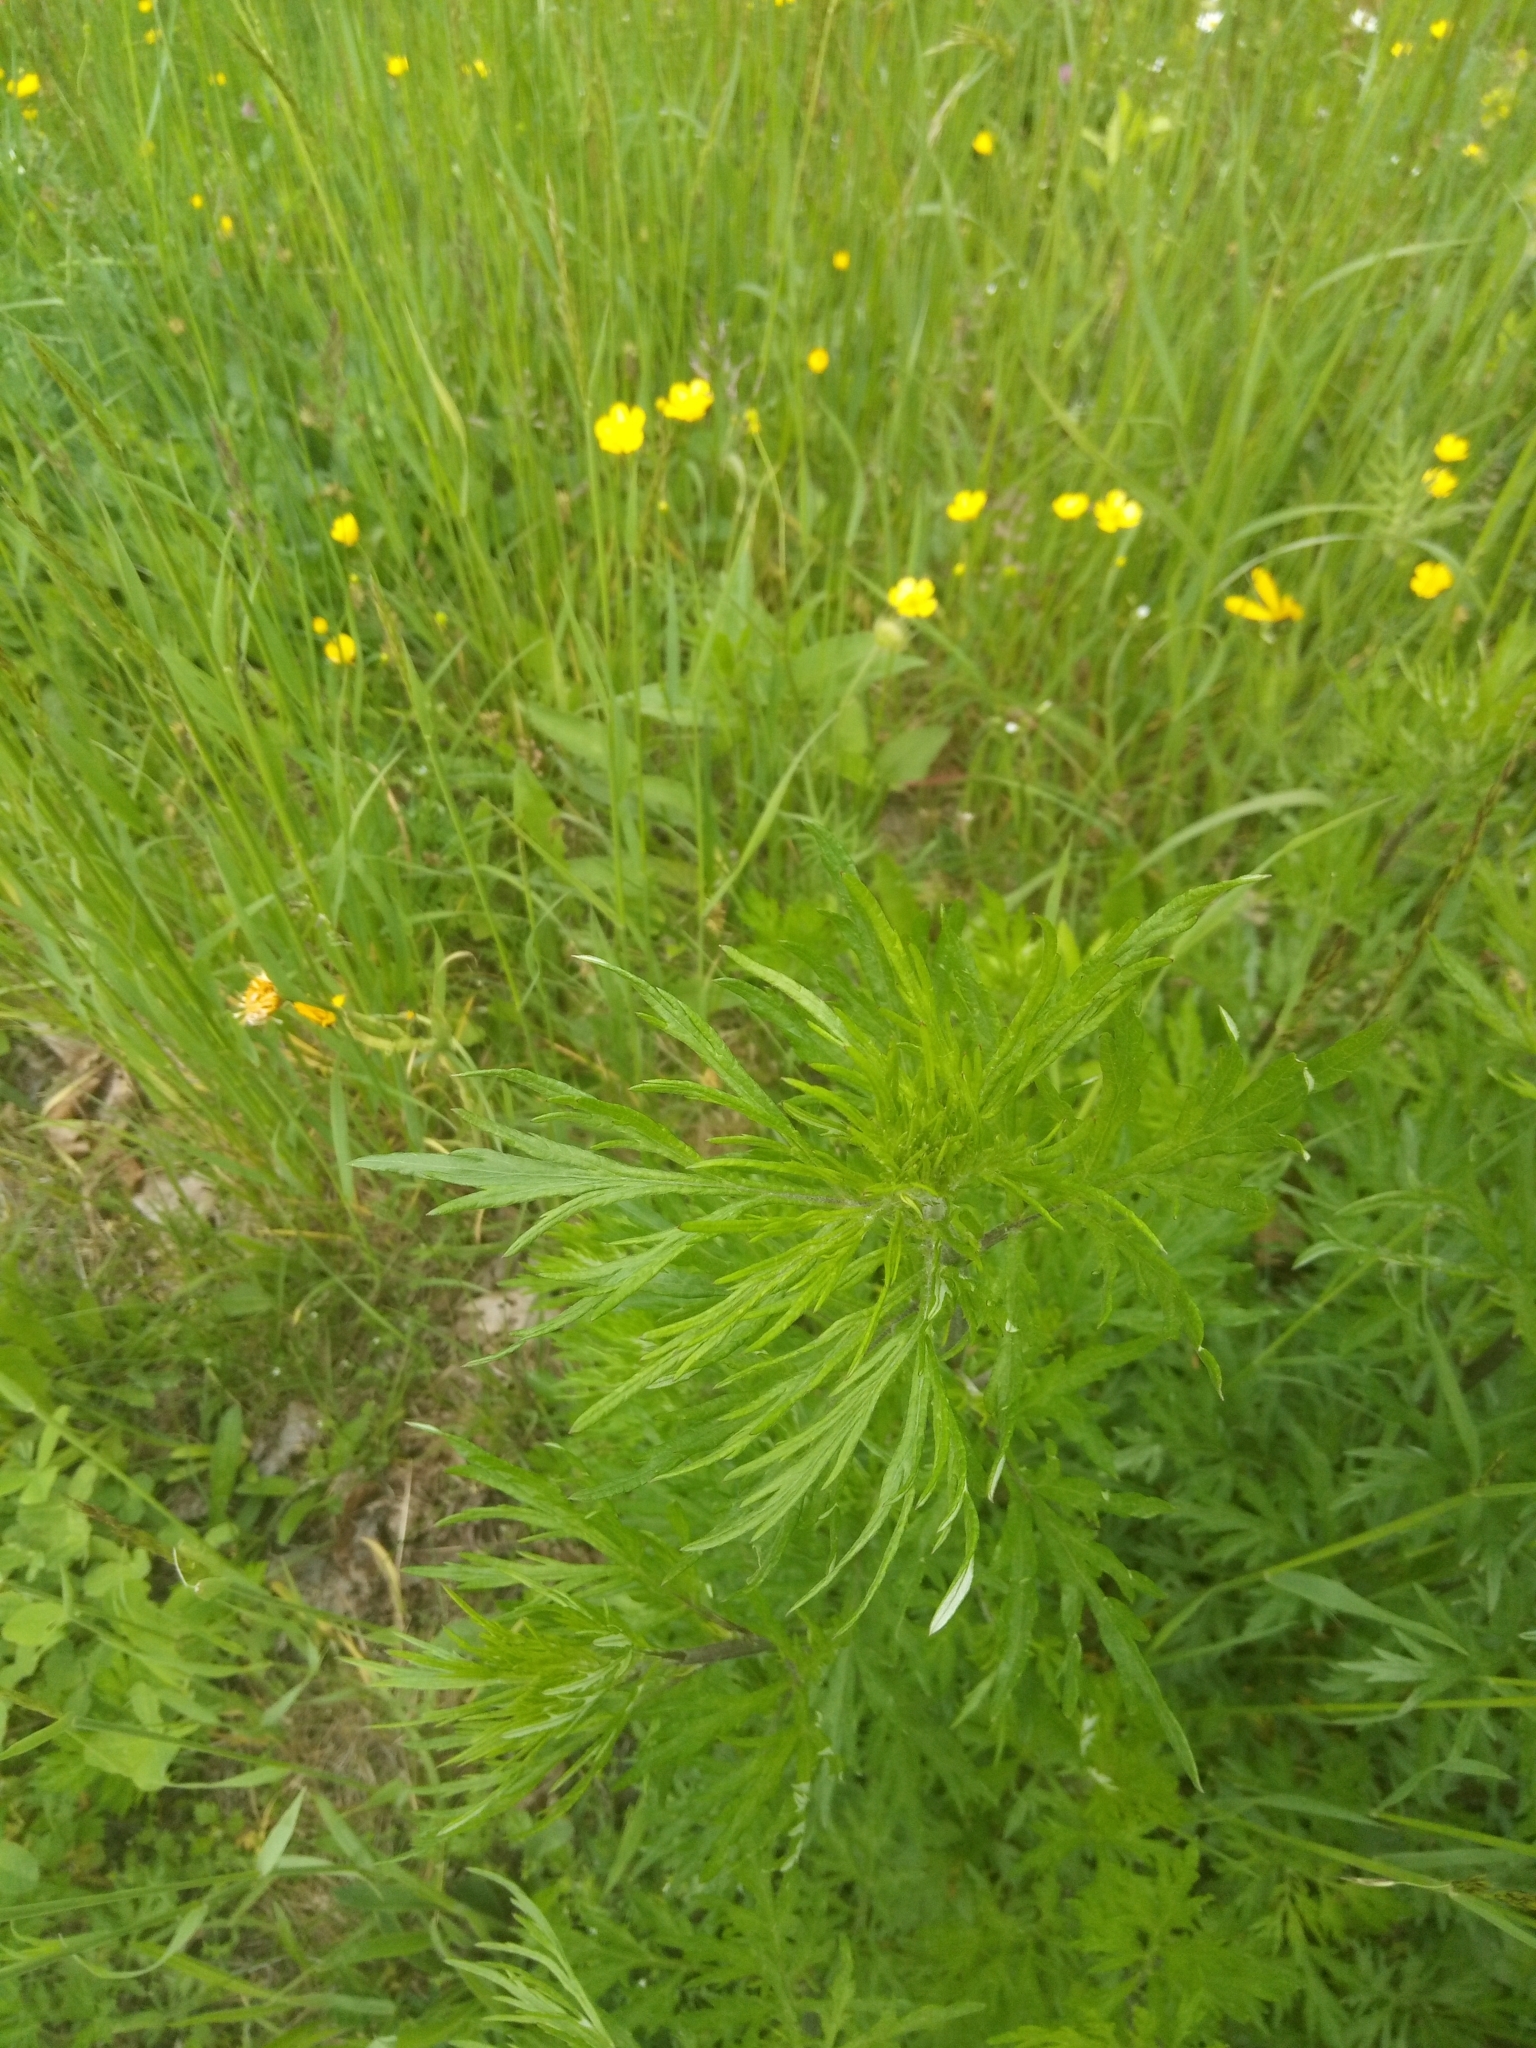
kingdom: Plantae
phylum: Tracheophyta
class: Magnoliopsida
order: Asterales
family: Asteraceae
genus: Artemisia
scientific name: Artemisia vulgaris
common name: Mugwort
